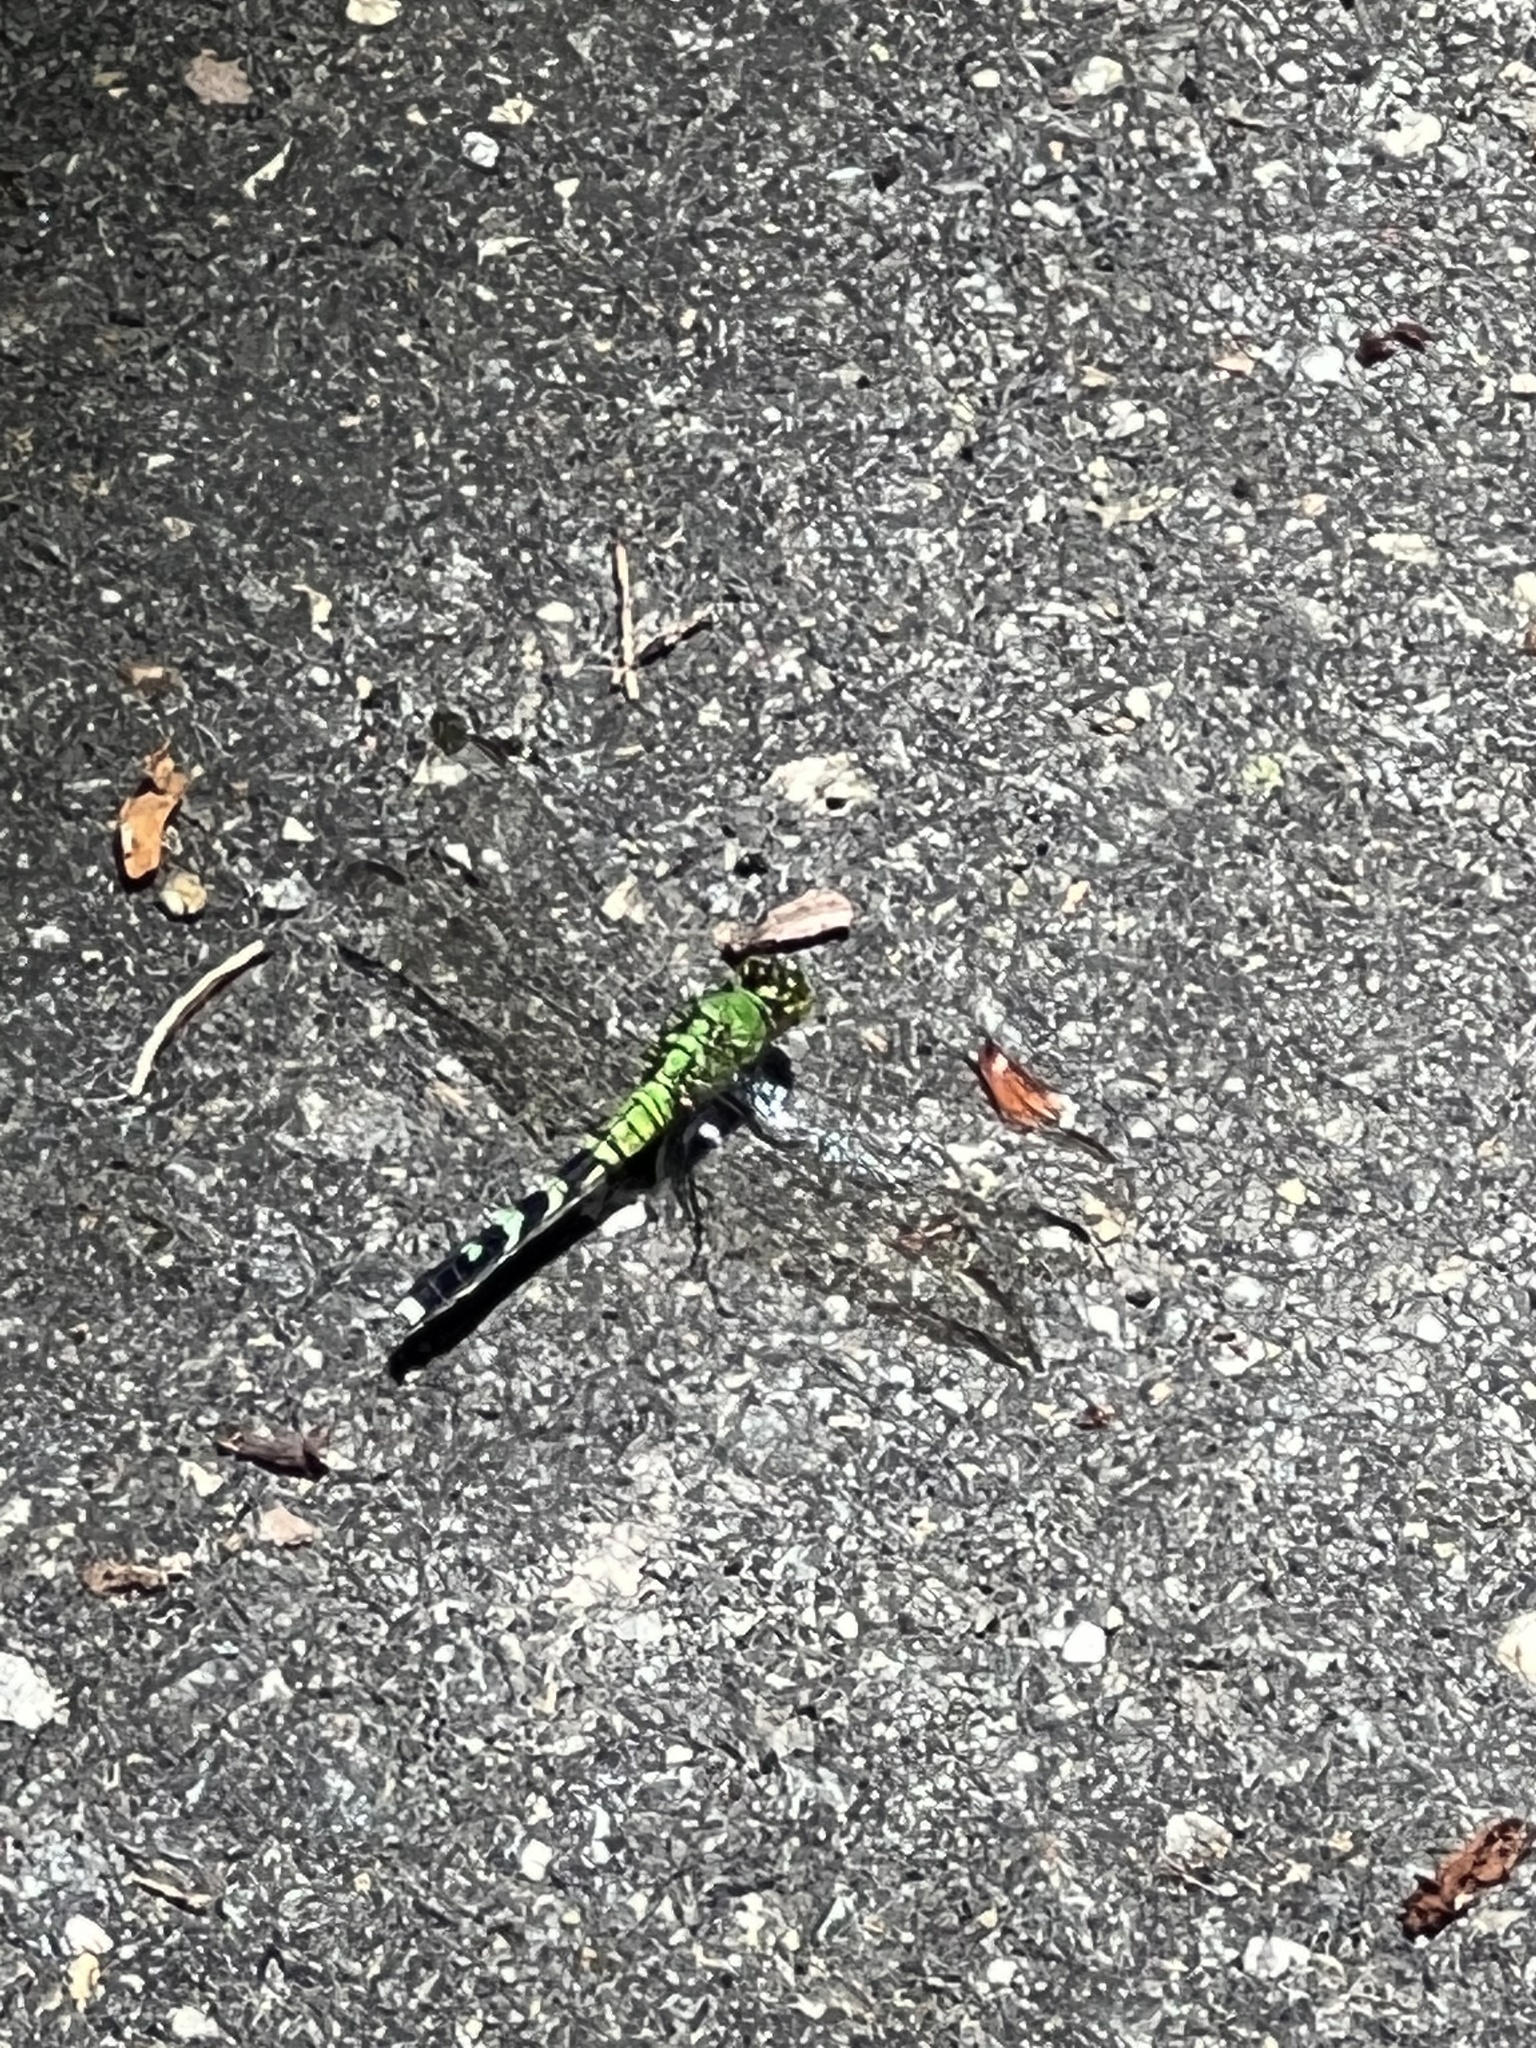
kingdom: Animalia
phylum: Arthropoda
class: Insecta
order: Odonata
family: Libellulidae
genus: Erythemis
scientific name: Erythemis simplicicollis
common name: Eastern pondhawk
